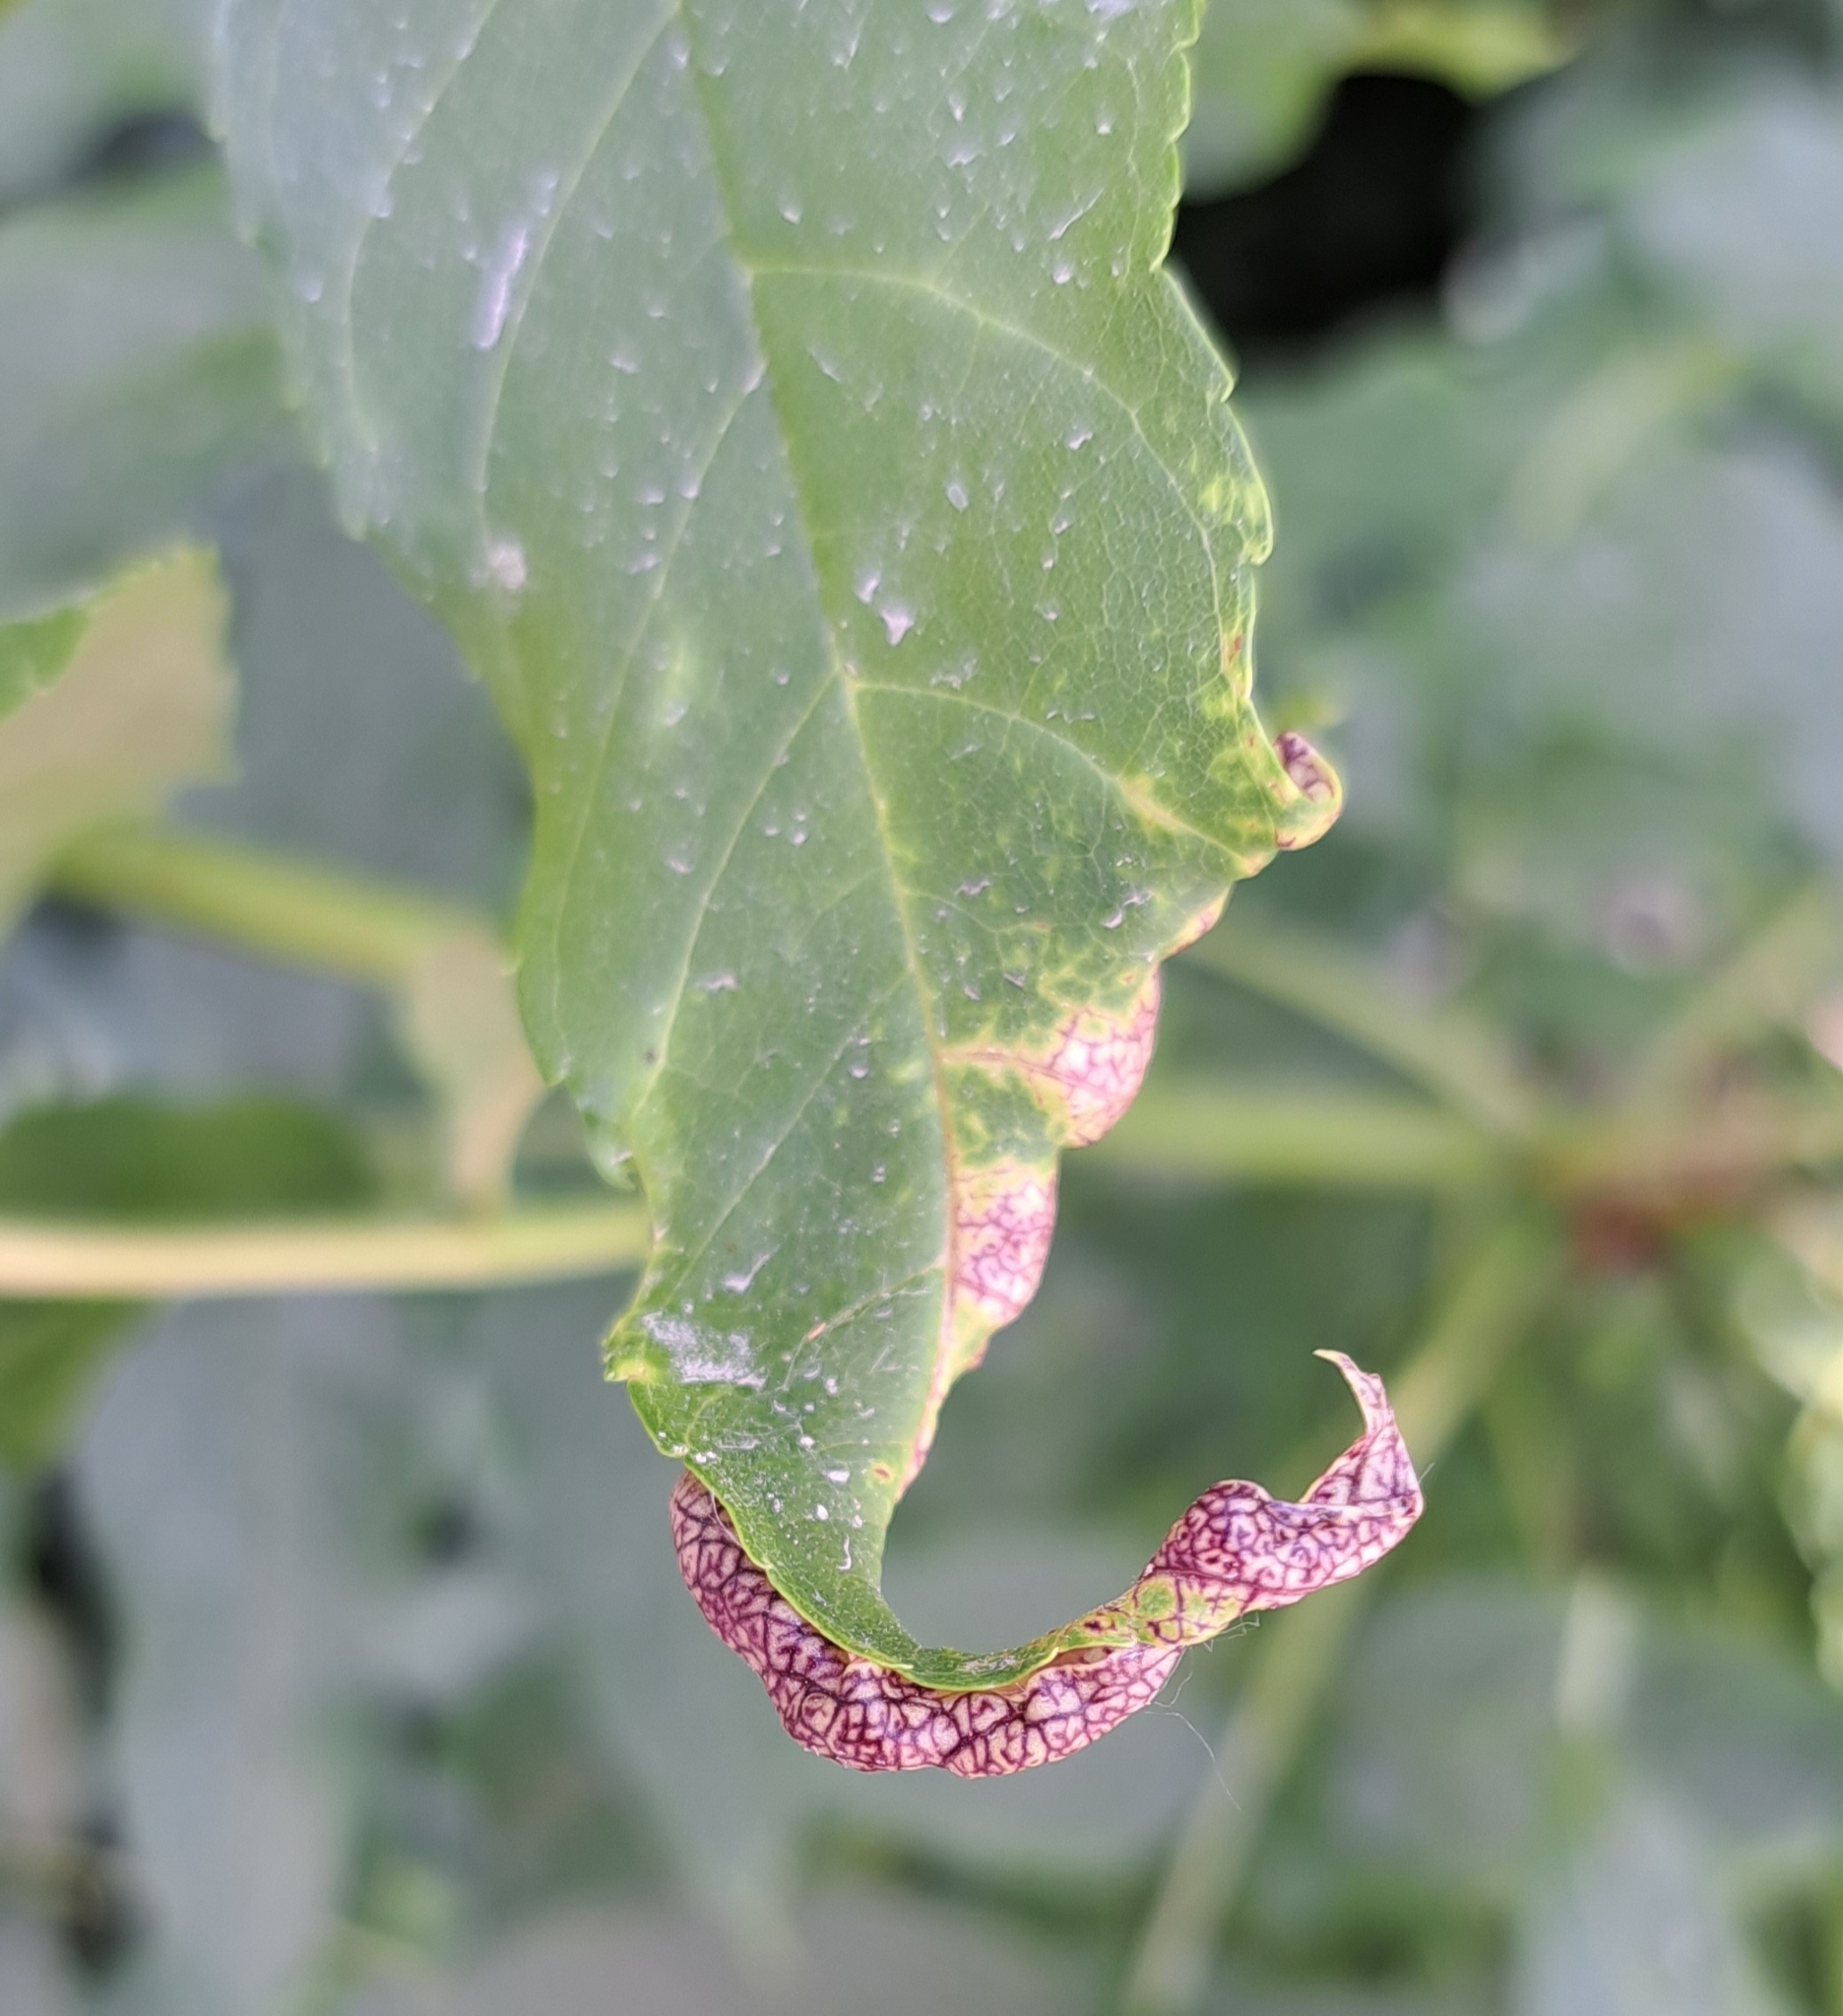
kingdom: Animalia
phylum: Arthropoda
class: Insecta
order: Hemiptera
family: Liviidae
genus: Psyllopsis
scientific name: Psyllopsis fraxini
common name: Jumping plant louse
